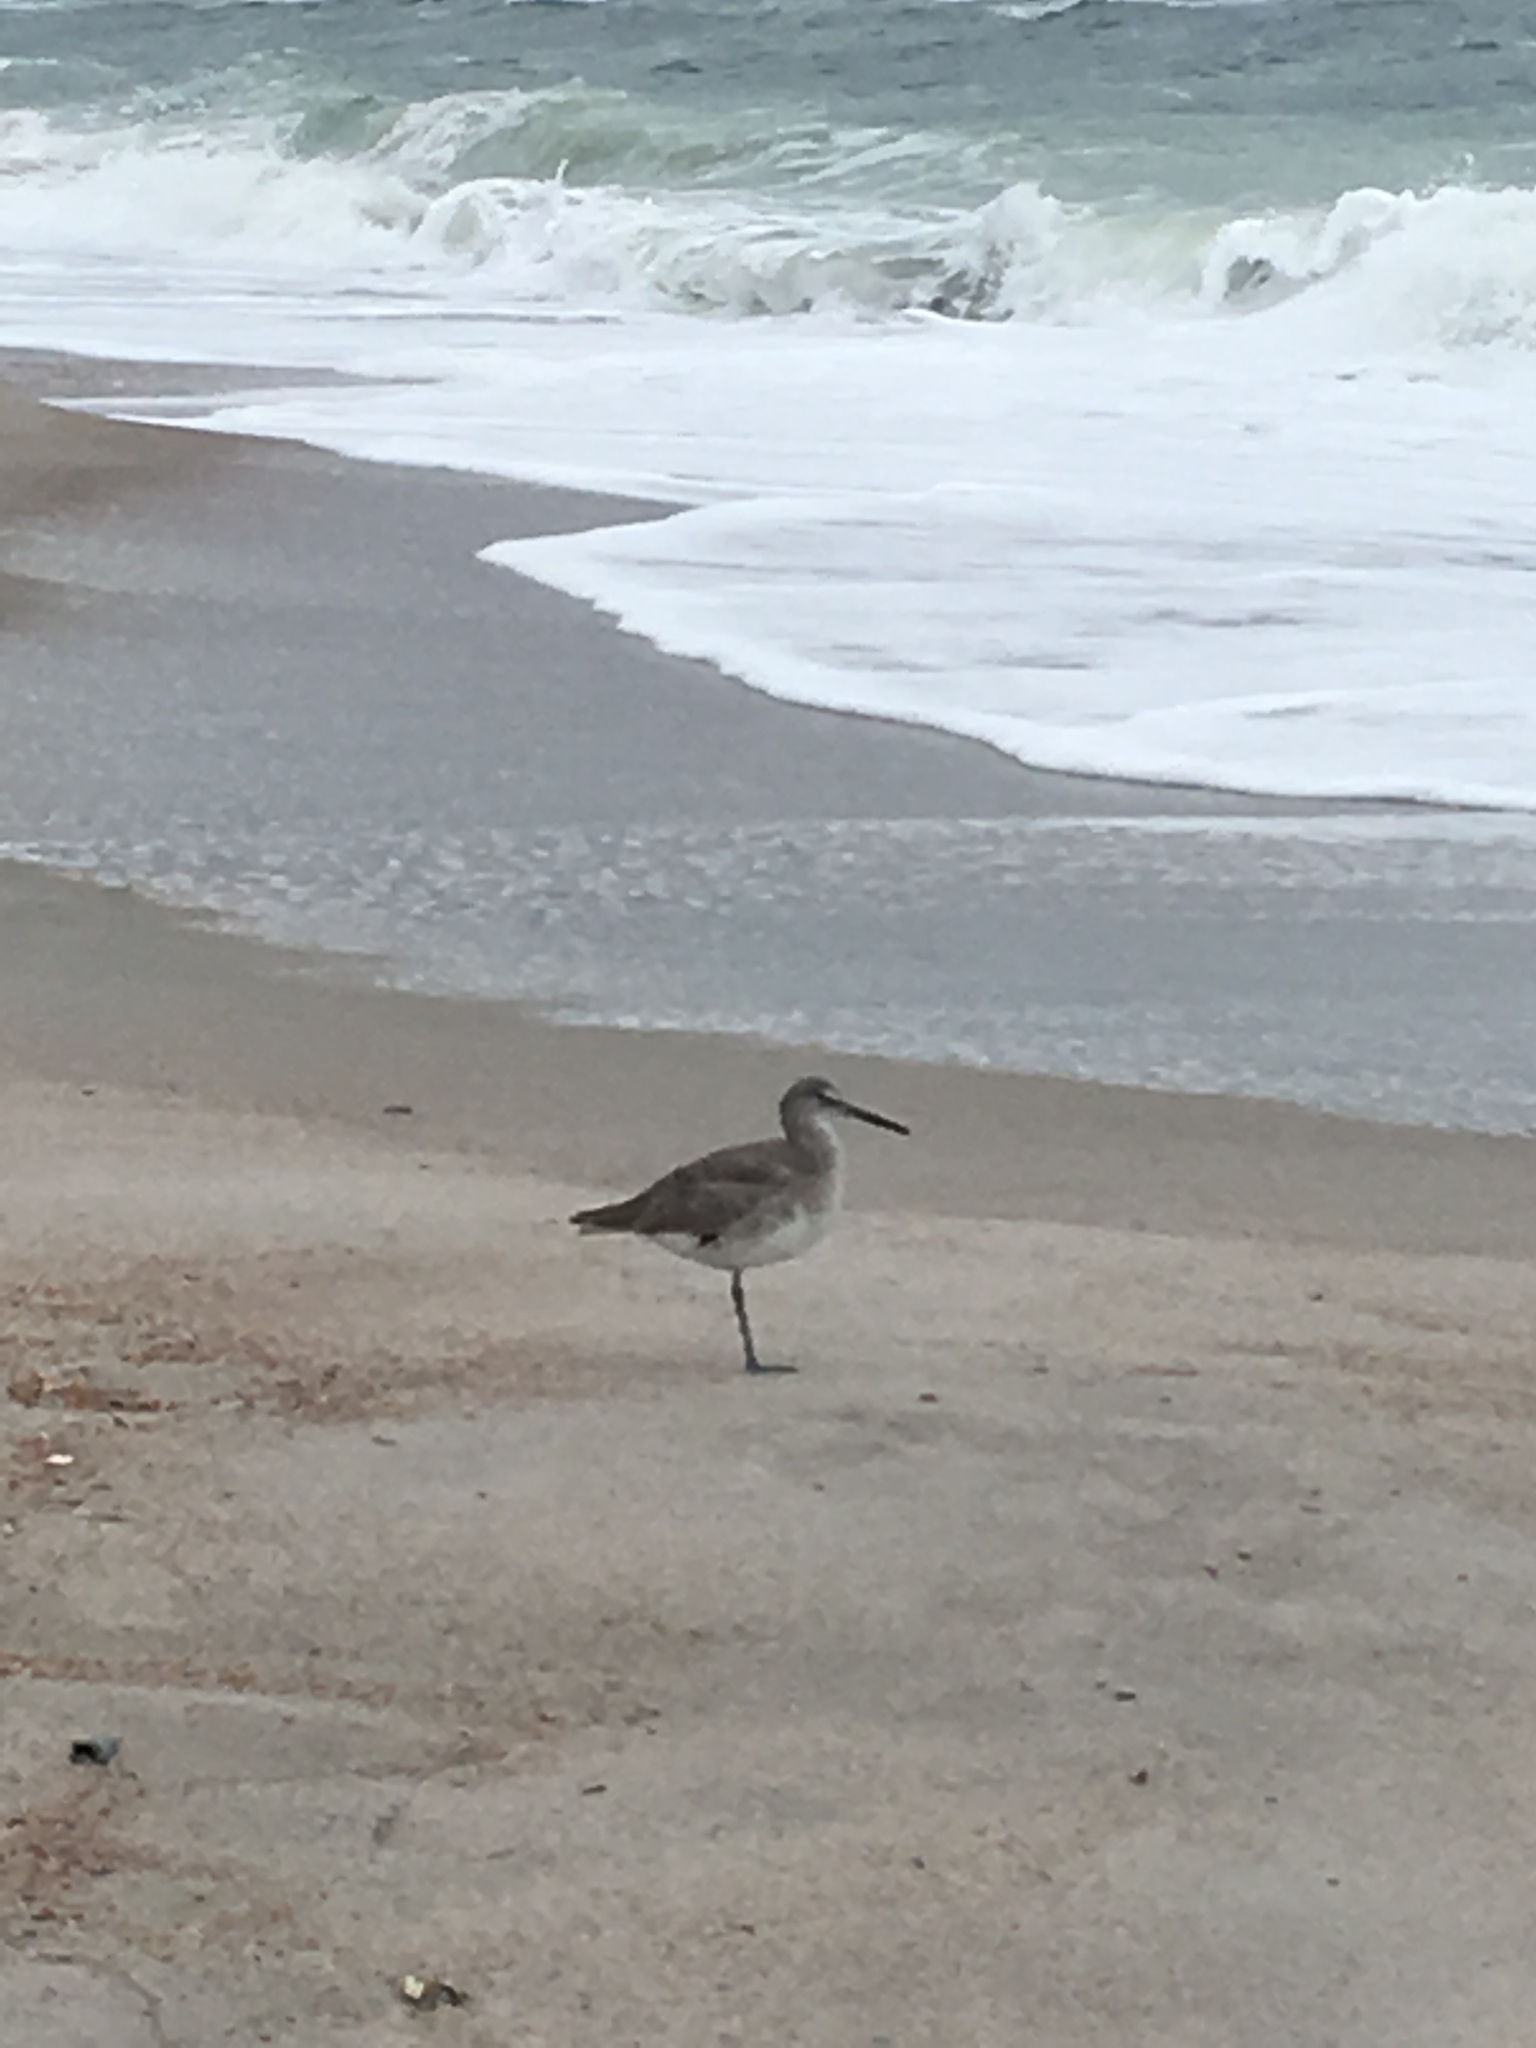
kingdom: Animalia
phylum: Chordata
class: Aves
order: Charadriiformes
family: Scolopacidae
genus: Tringa
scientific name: Tringa semipalmata
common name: Willet
